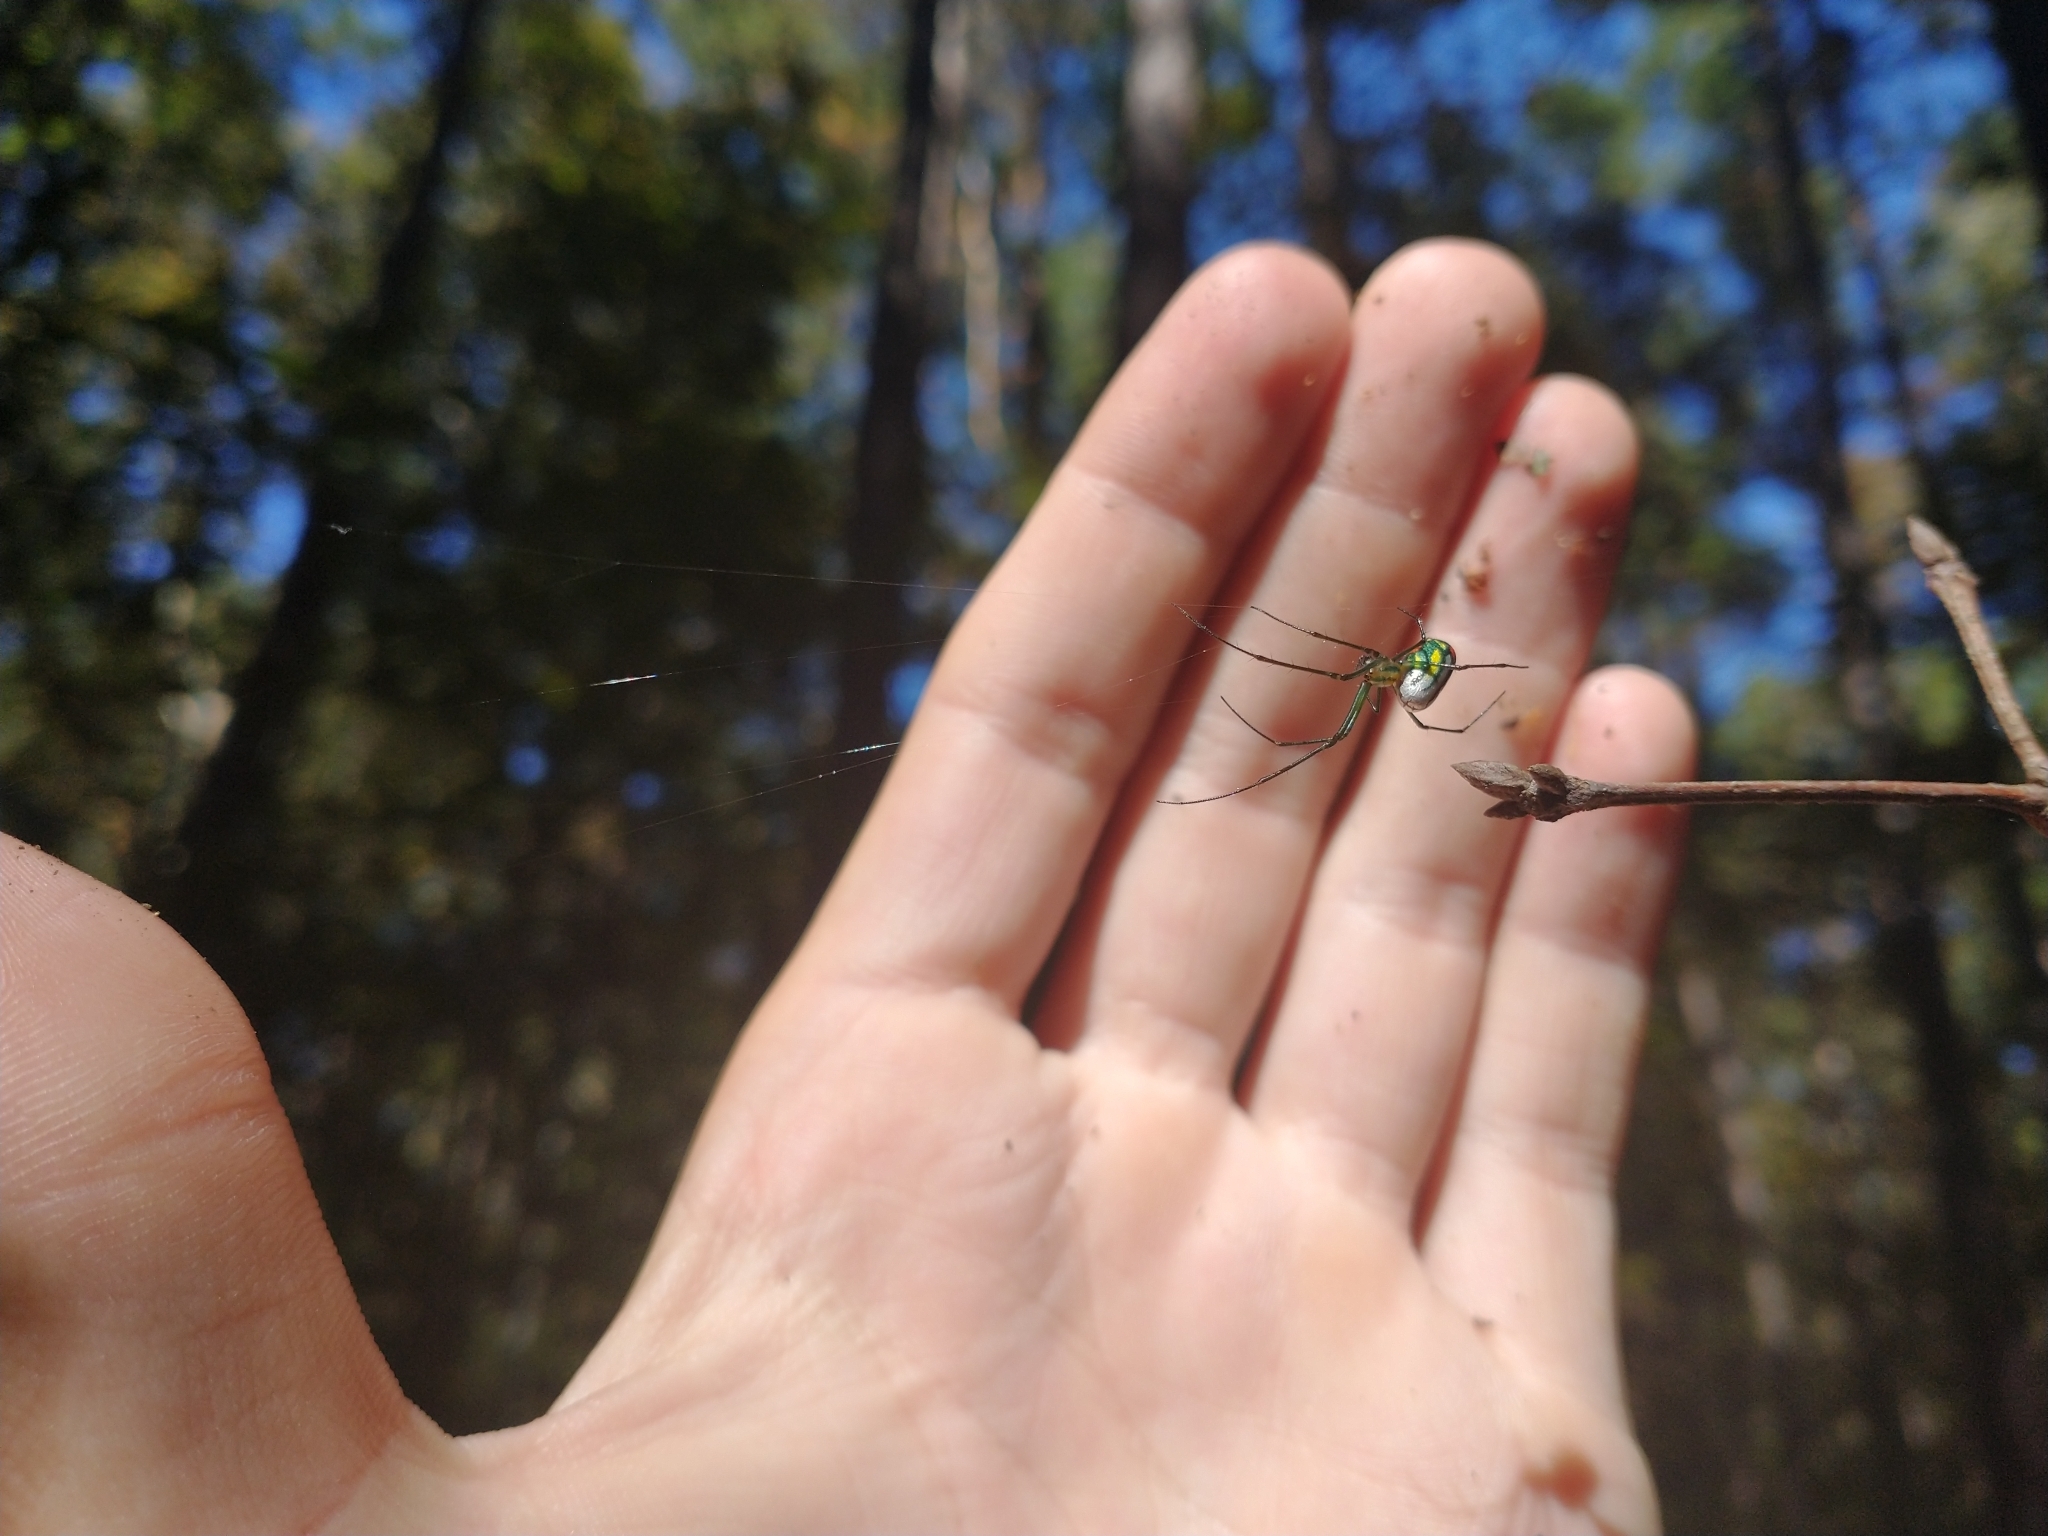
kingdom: Animalia
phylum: Arthropoda
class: Arachnida
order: Araneae
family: Tetragnathidae
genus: Leucauge
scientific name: Leucauge argyrobapta
